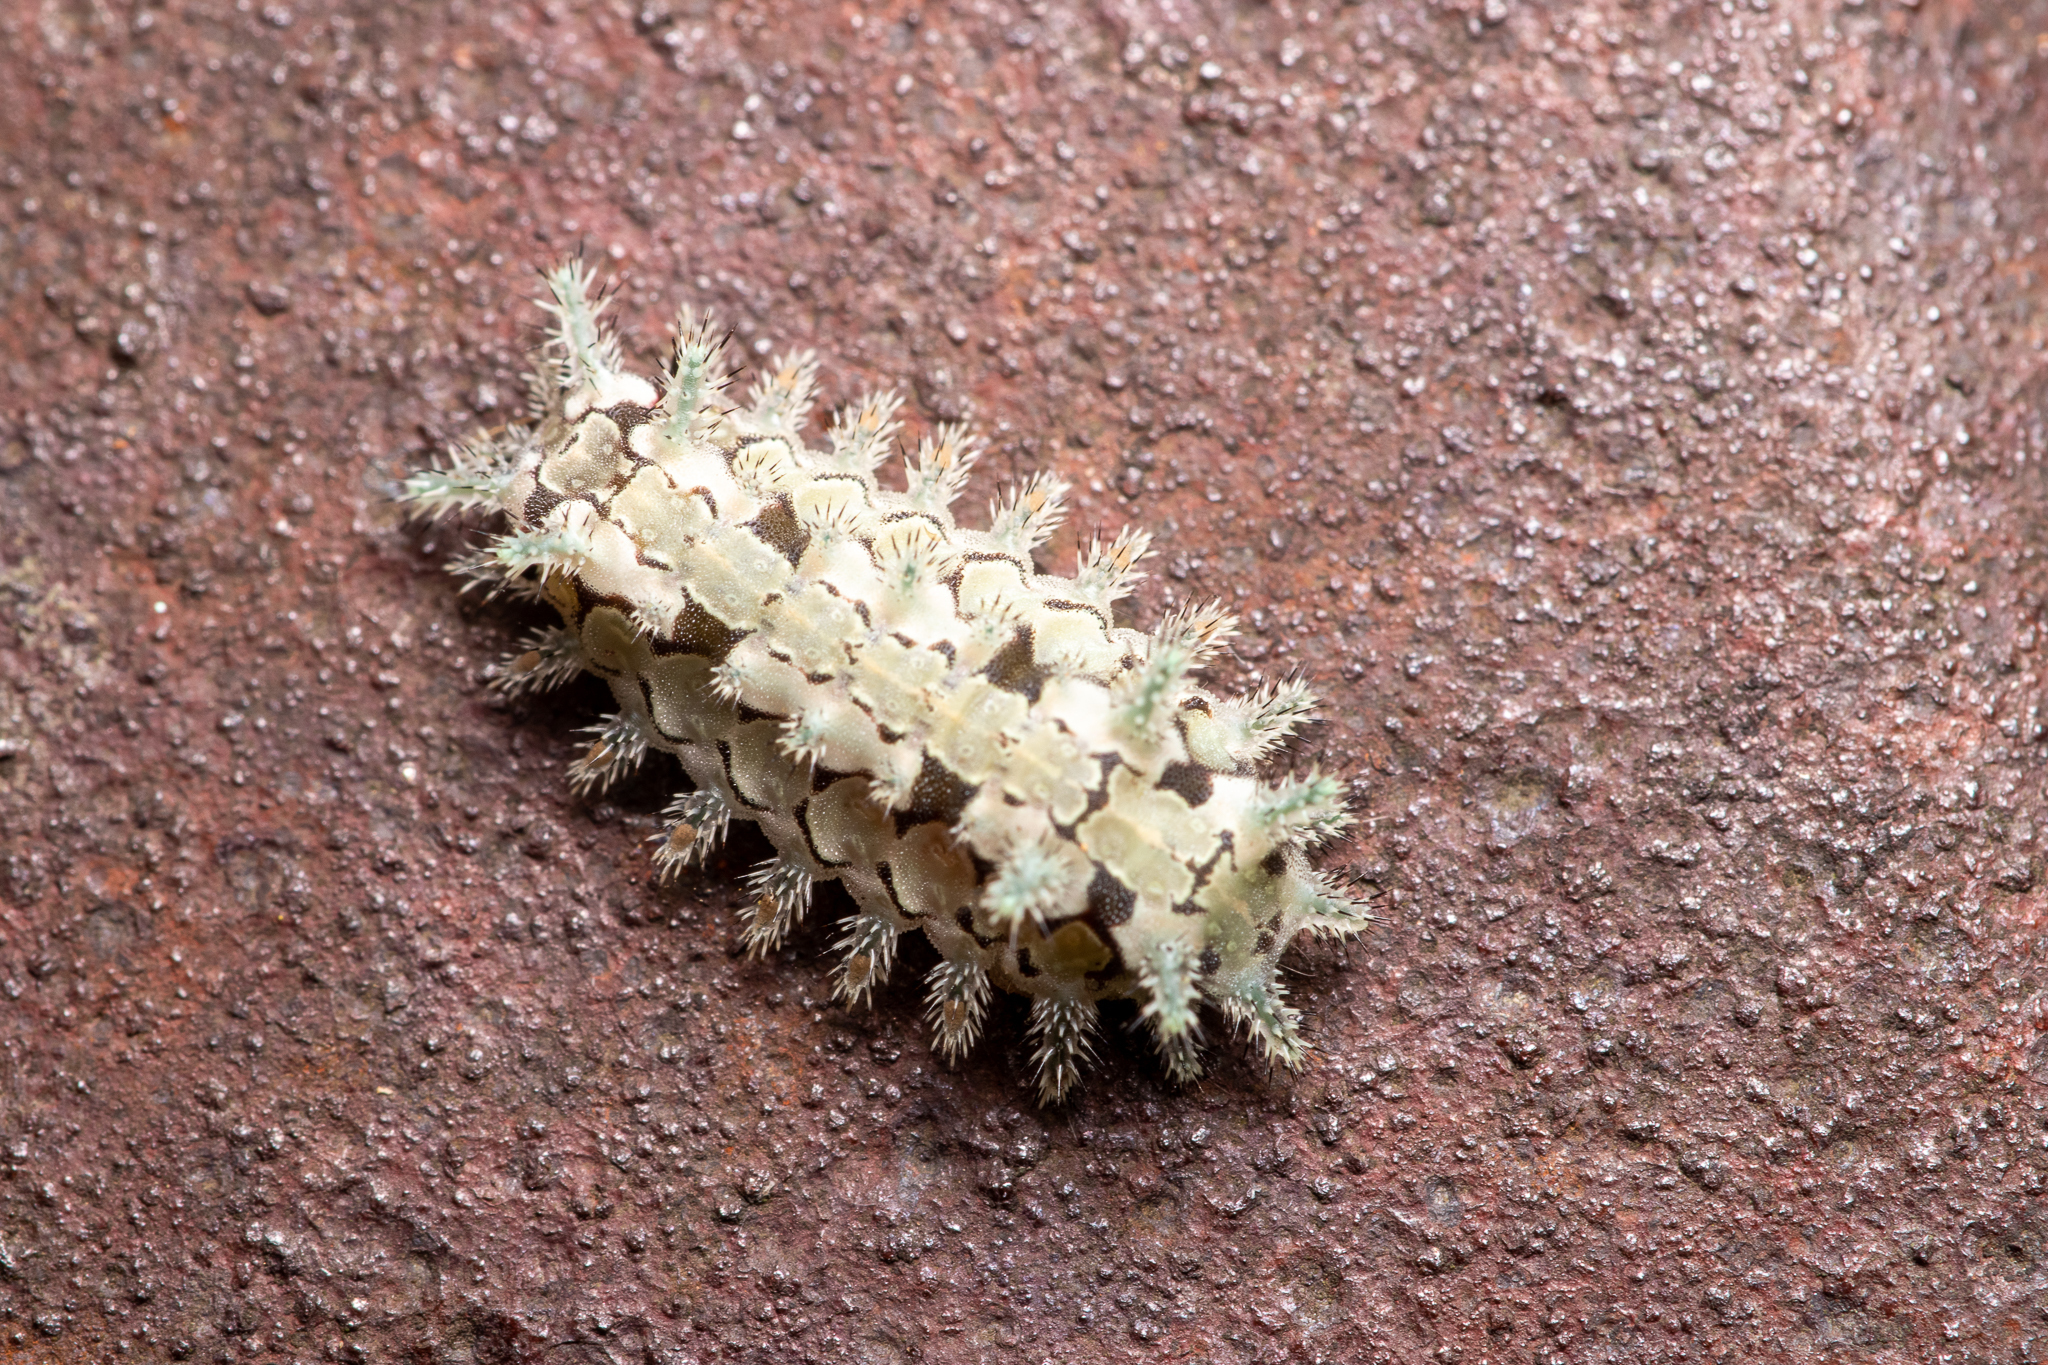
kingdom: Animalia
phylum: Arthropoda
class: Insecta
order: Lepidoptera
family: Limacodidae
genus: Euclea
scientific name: Euclea delphinii
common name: Spiny oak-slug moth
